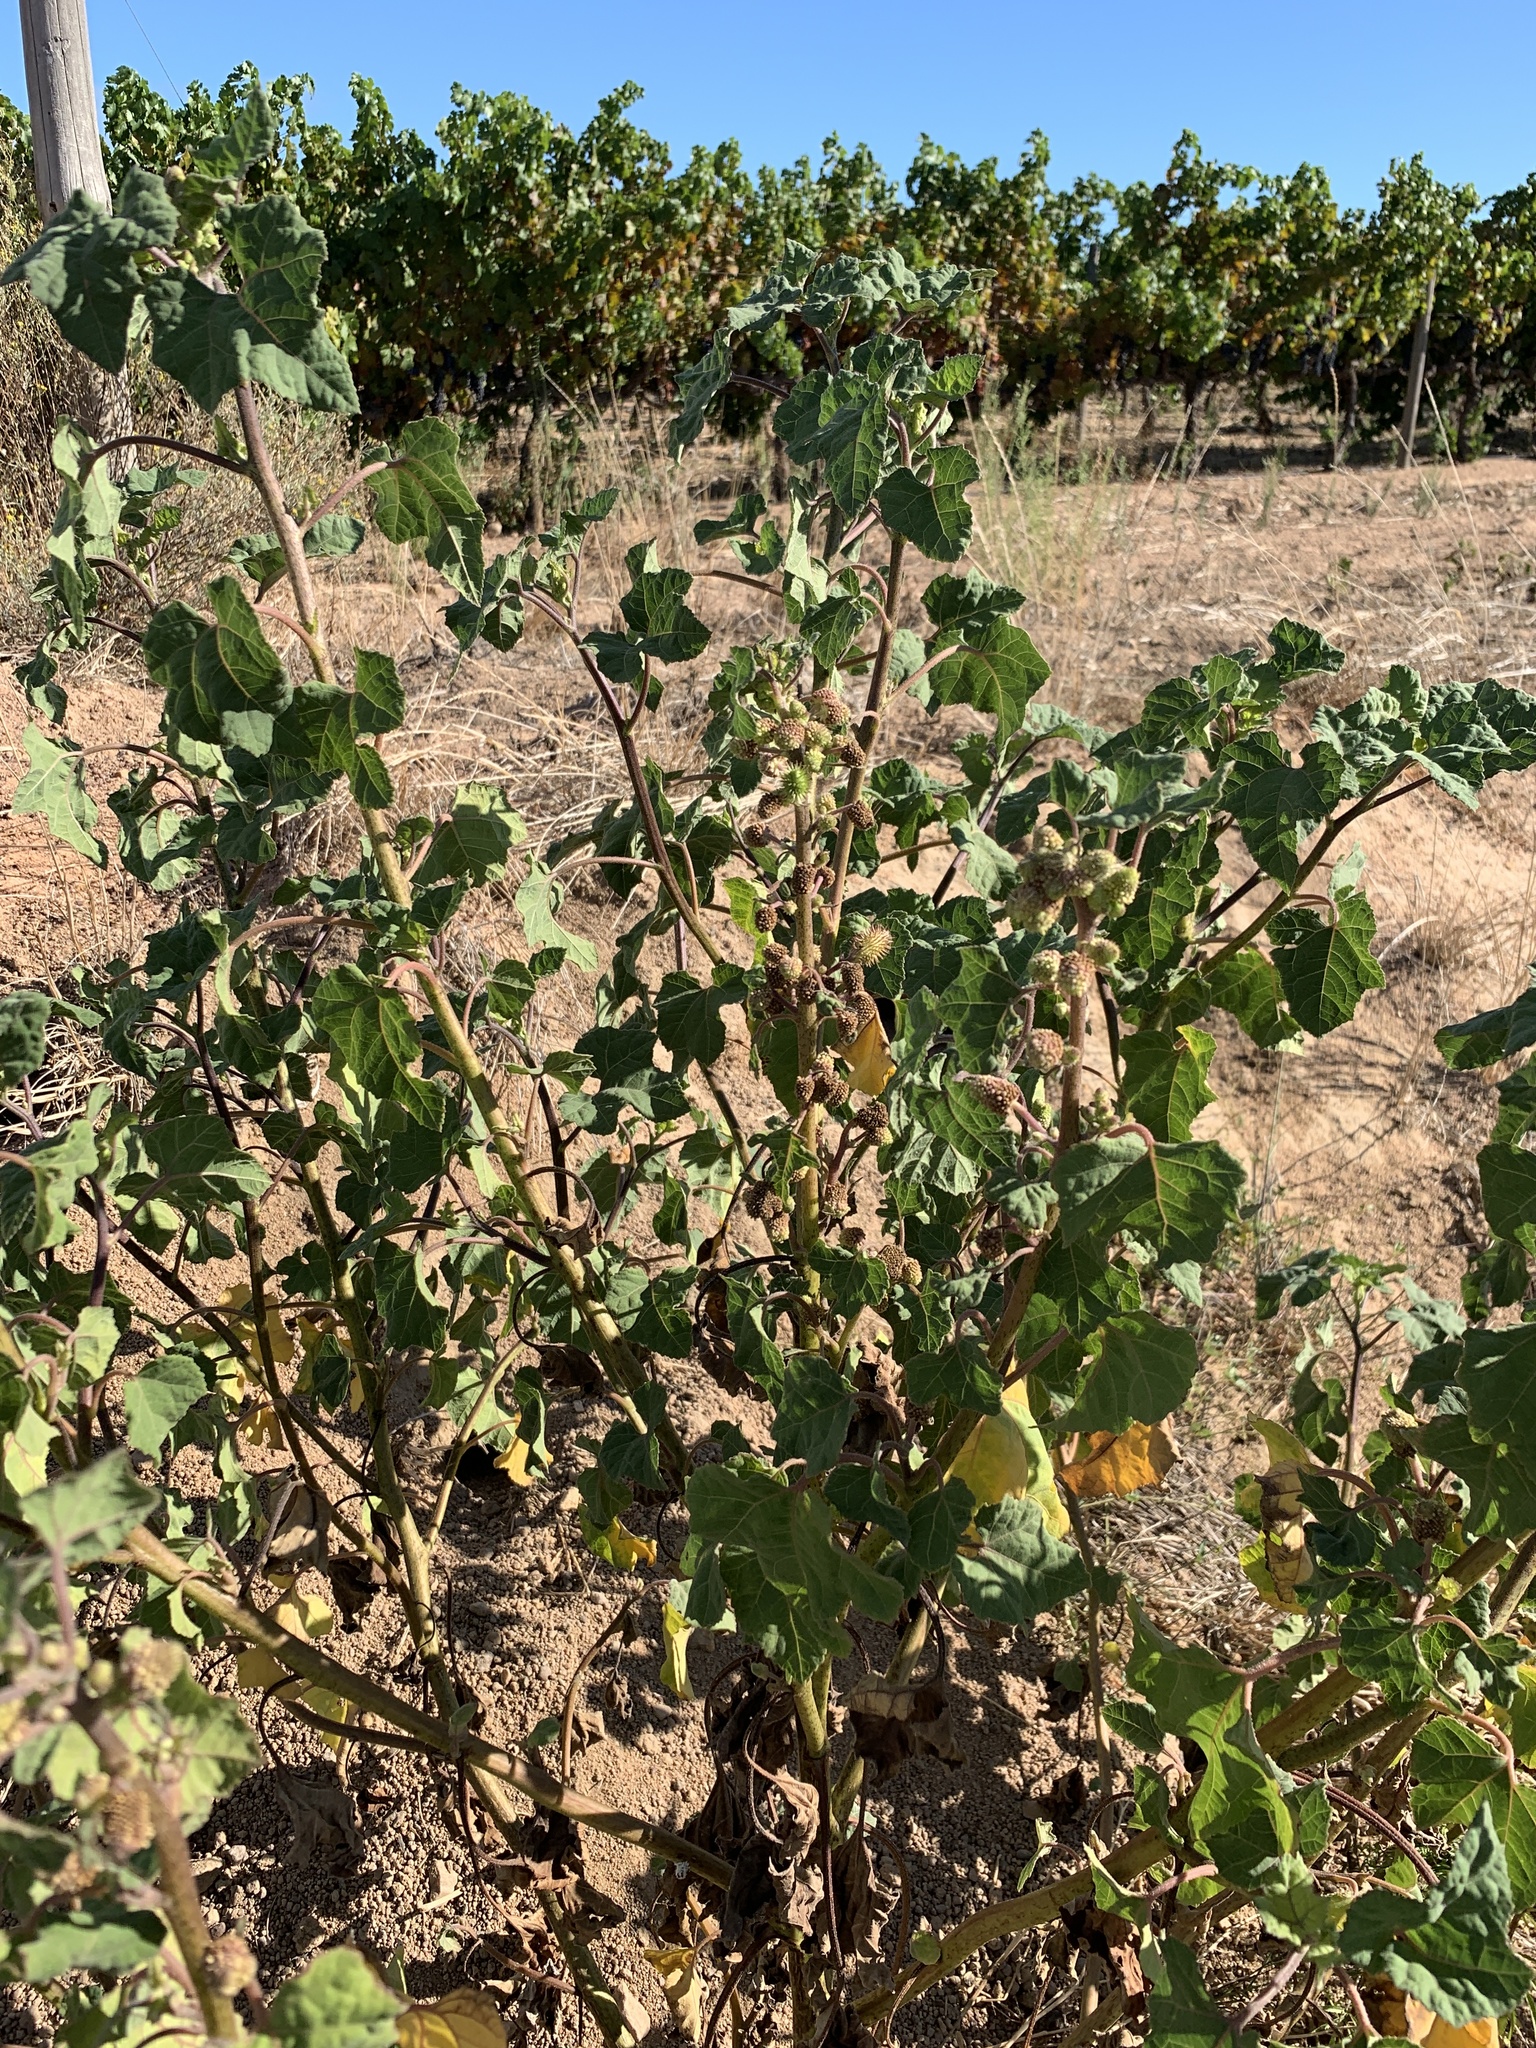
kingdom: Plantae
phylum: Tracheophyta
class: Magnoliopsida
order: Asterales
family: Asteraceae
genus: Xanthium
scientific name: Xanthium strumarium
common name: Rough cocklebur
